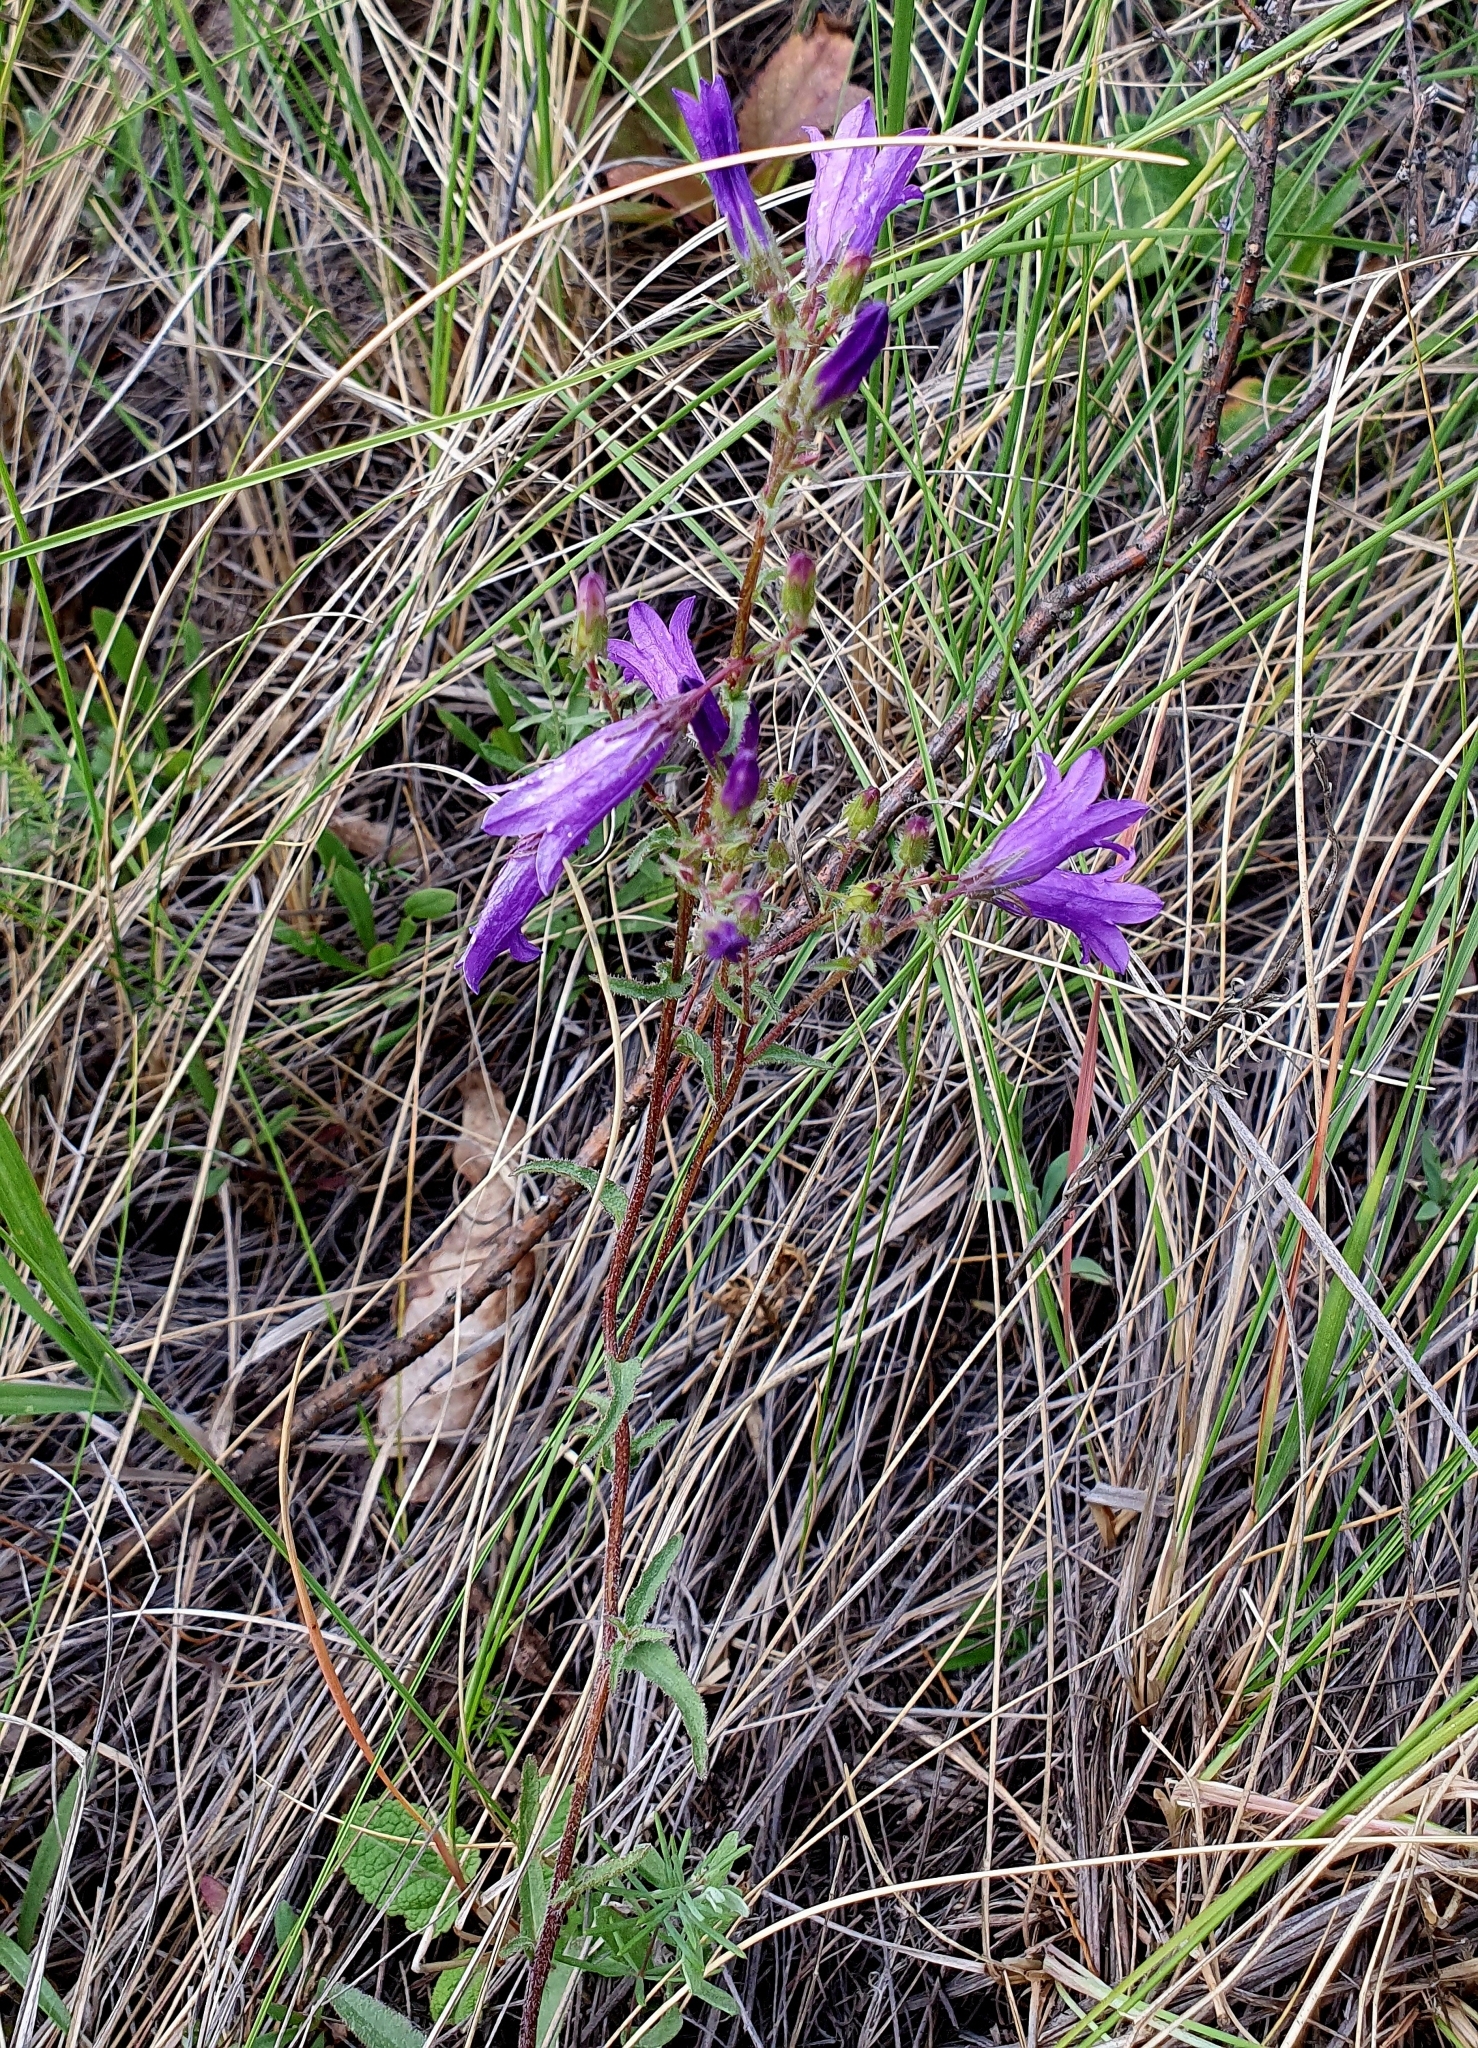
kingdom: Plantae
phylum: Tracheophyta
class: Magnoliopsida
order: Asterales
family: Campanulaceae
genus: Campanula
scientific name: Campanula sibirica
